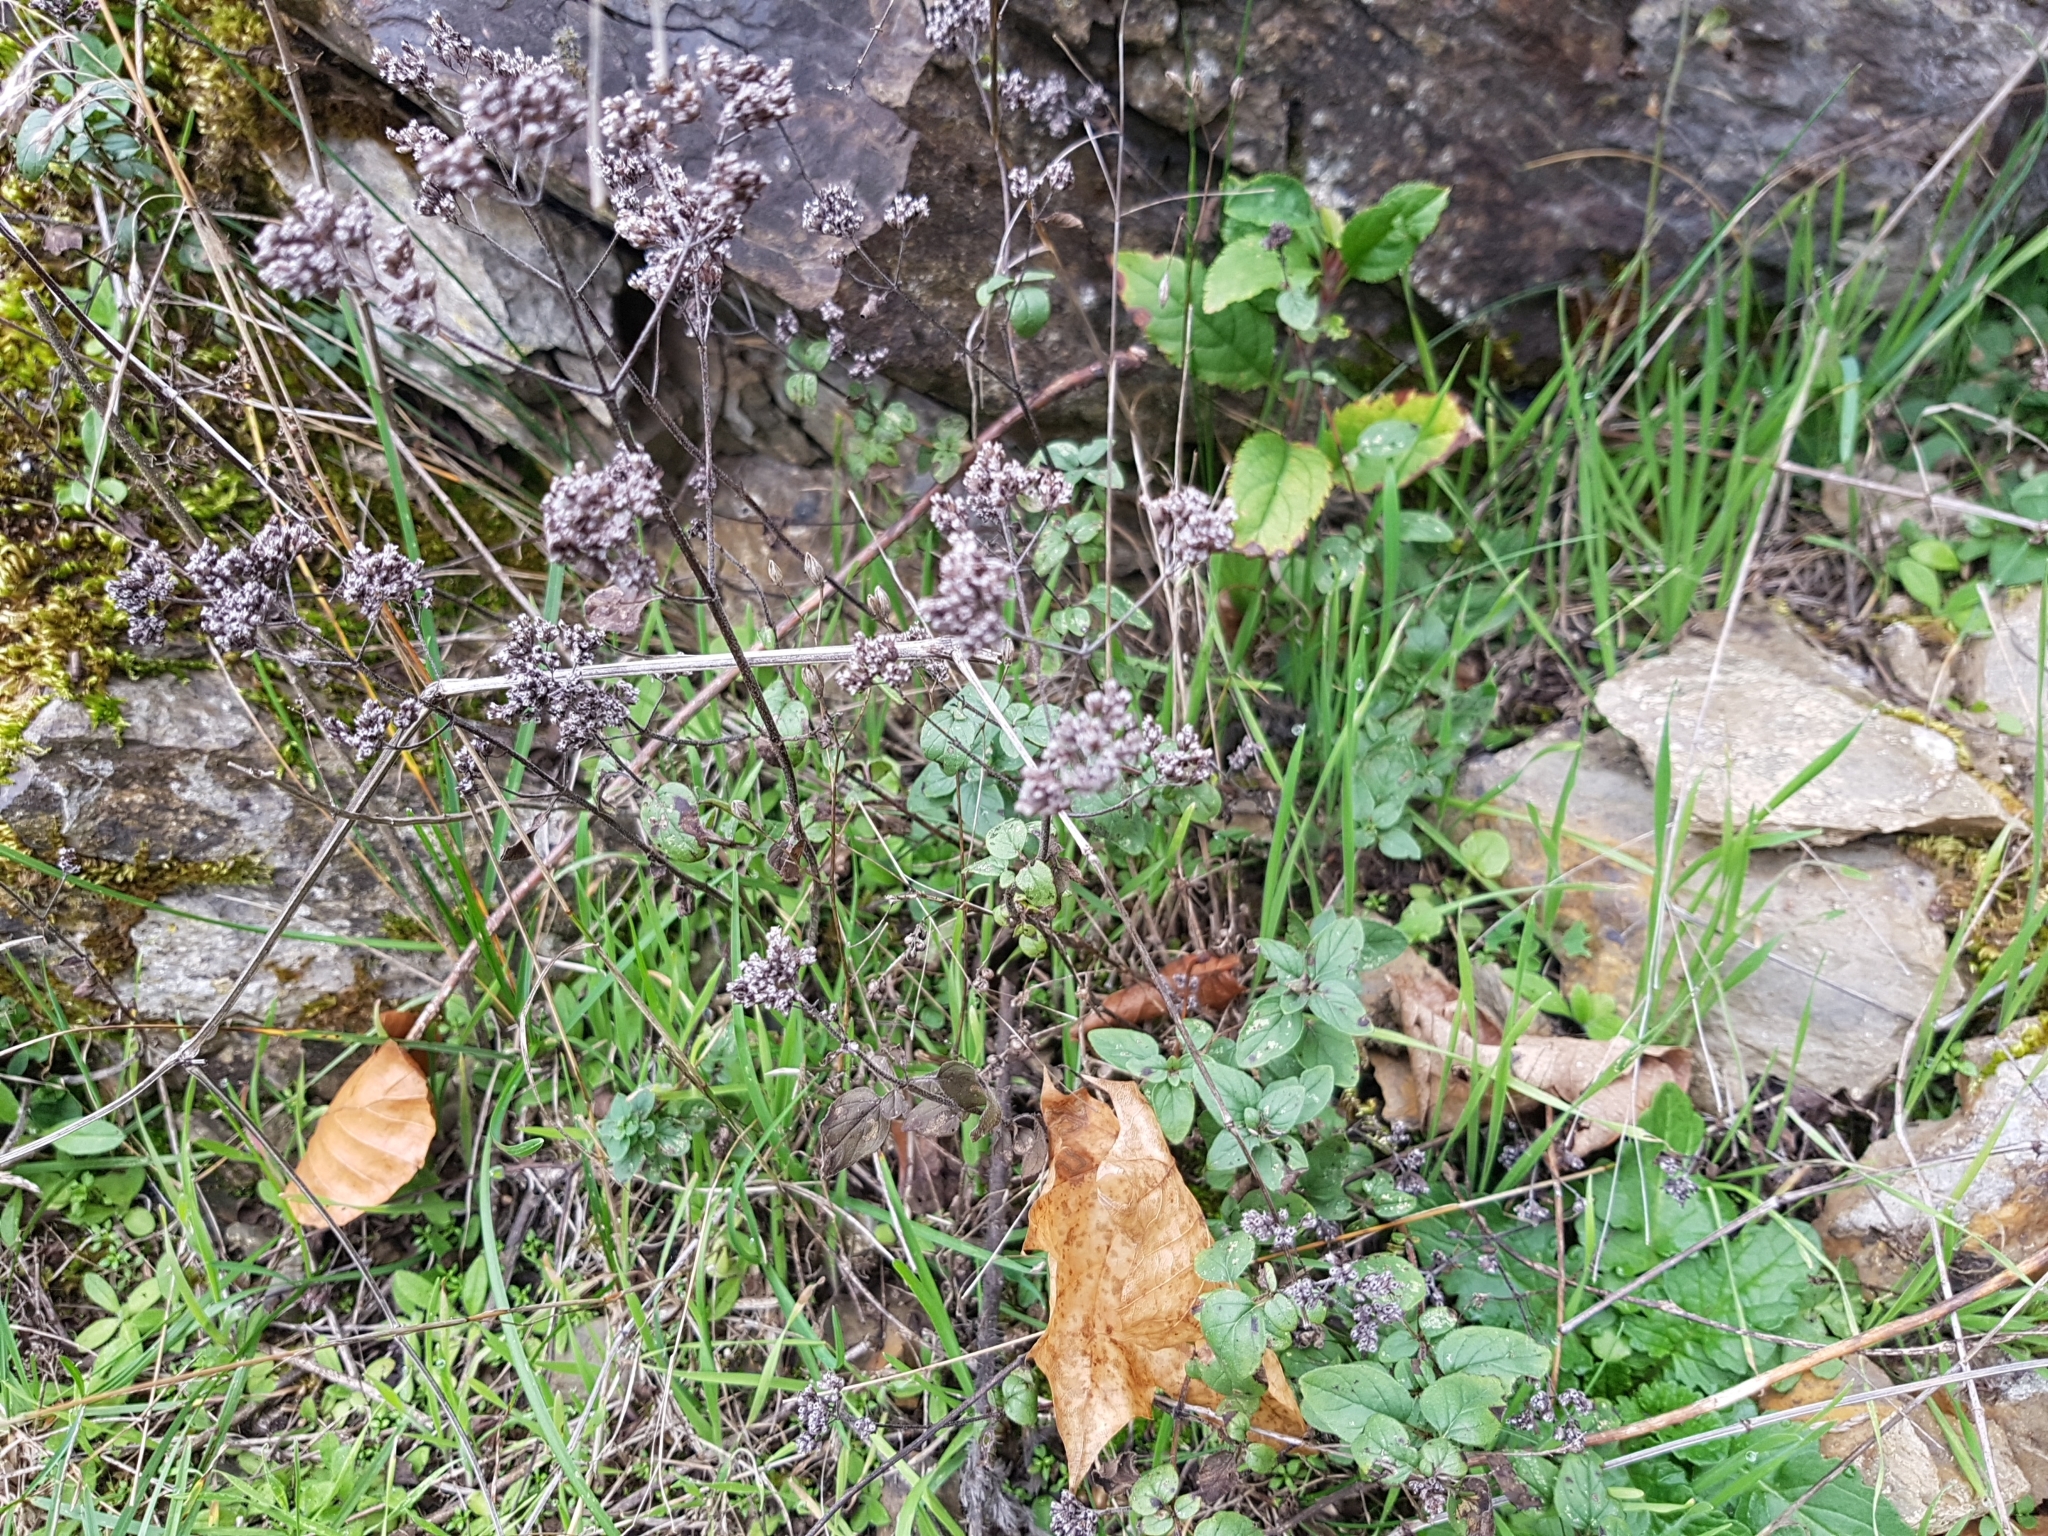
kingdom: Plantae
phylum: Tracheophyta
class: Magnoliopsida
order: Lamiales
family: Lamiaceae
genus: Origanum
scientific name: Origanum vulgare
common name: Wild marjoram
